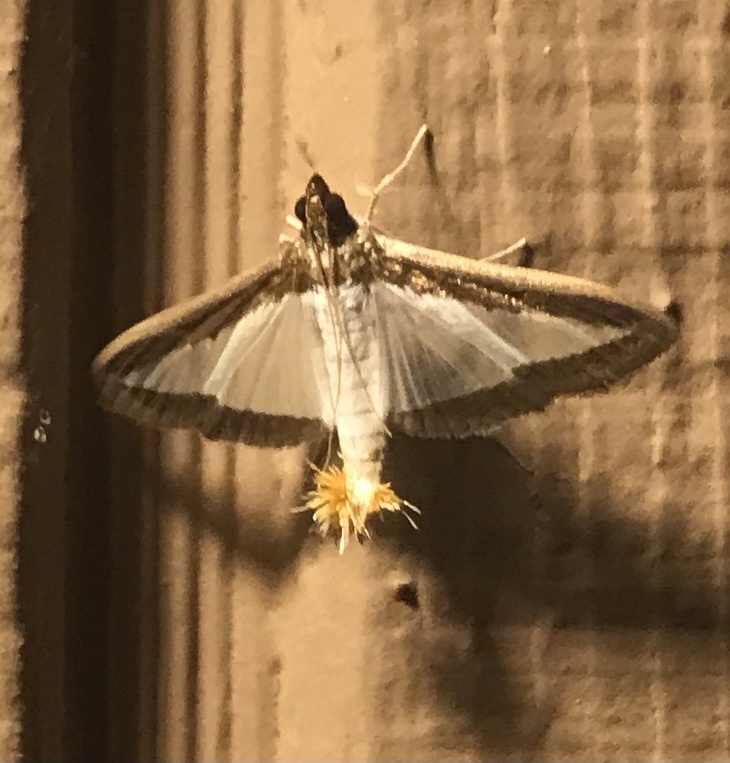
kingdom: Animalia
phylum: Arthropoda
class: Insecta
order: Lepidoptera
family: Crambidae
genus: Diaphania
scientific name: Diaphania hyalinata
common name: Melonworm
